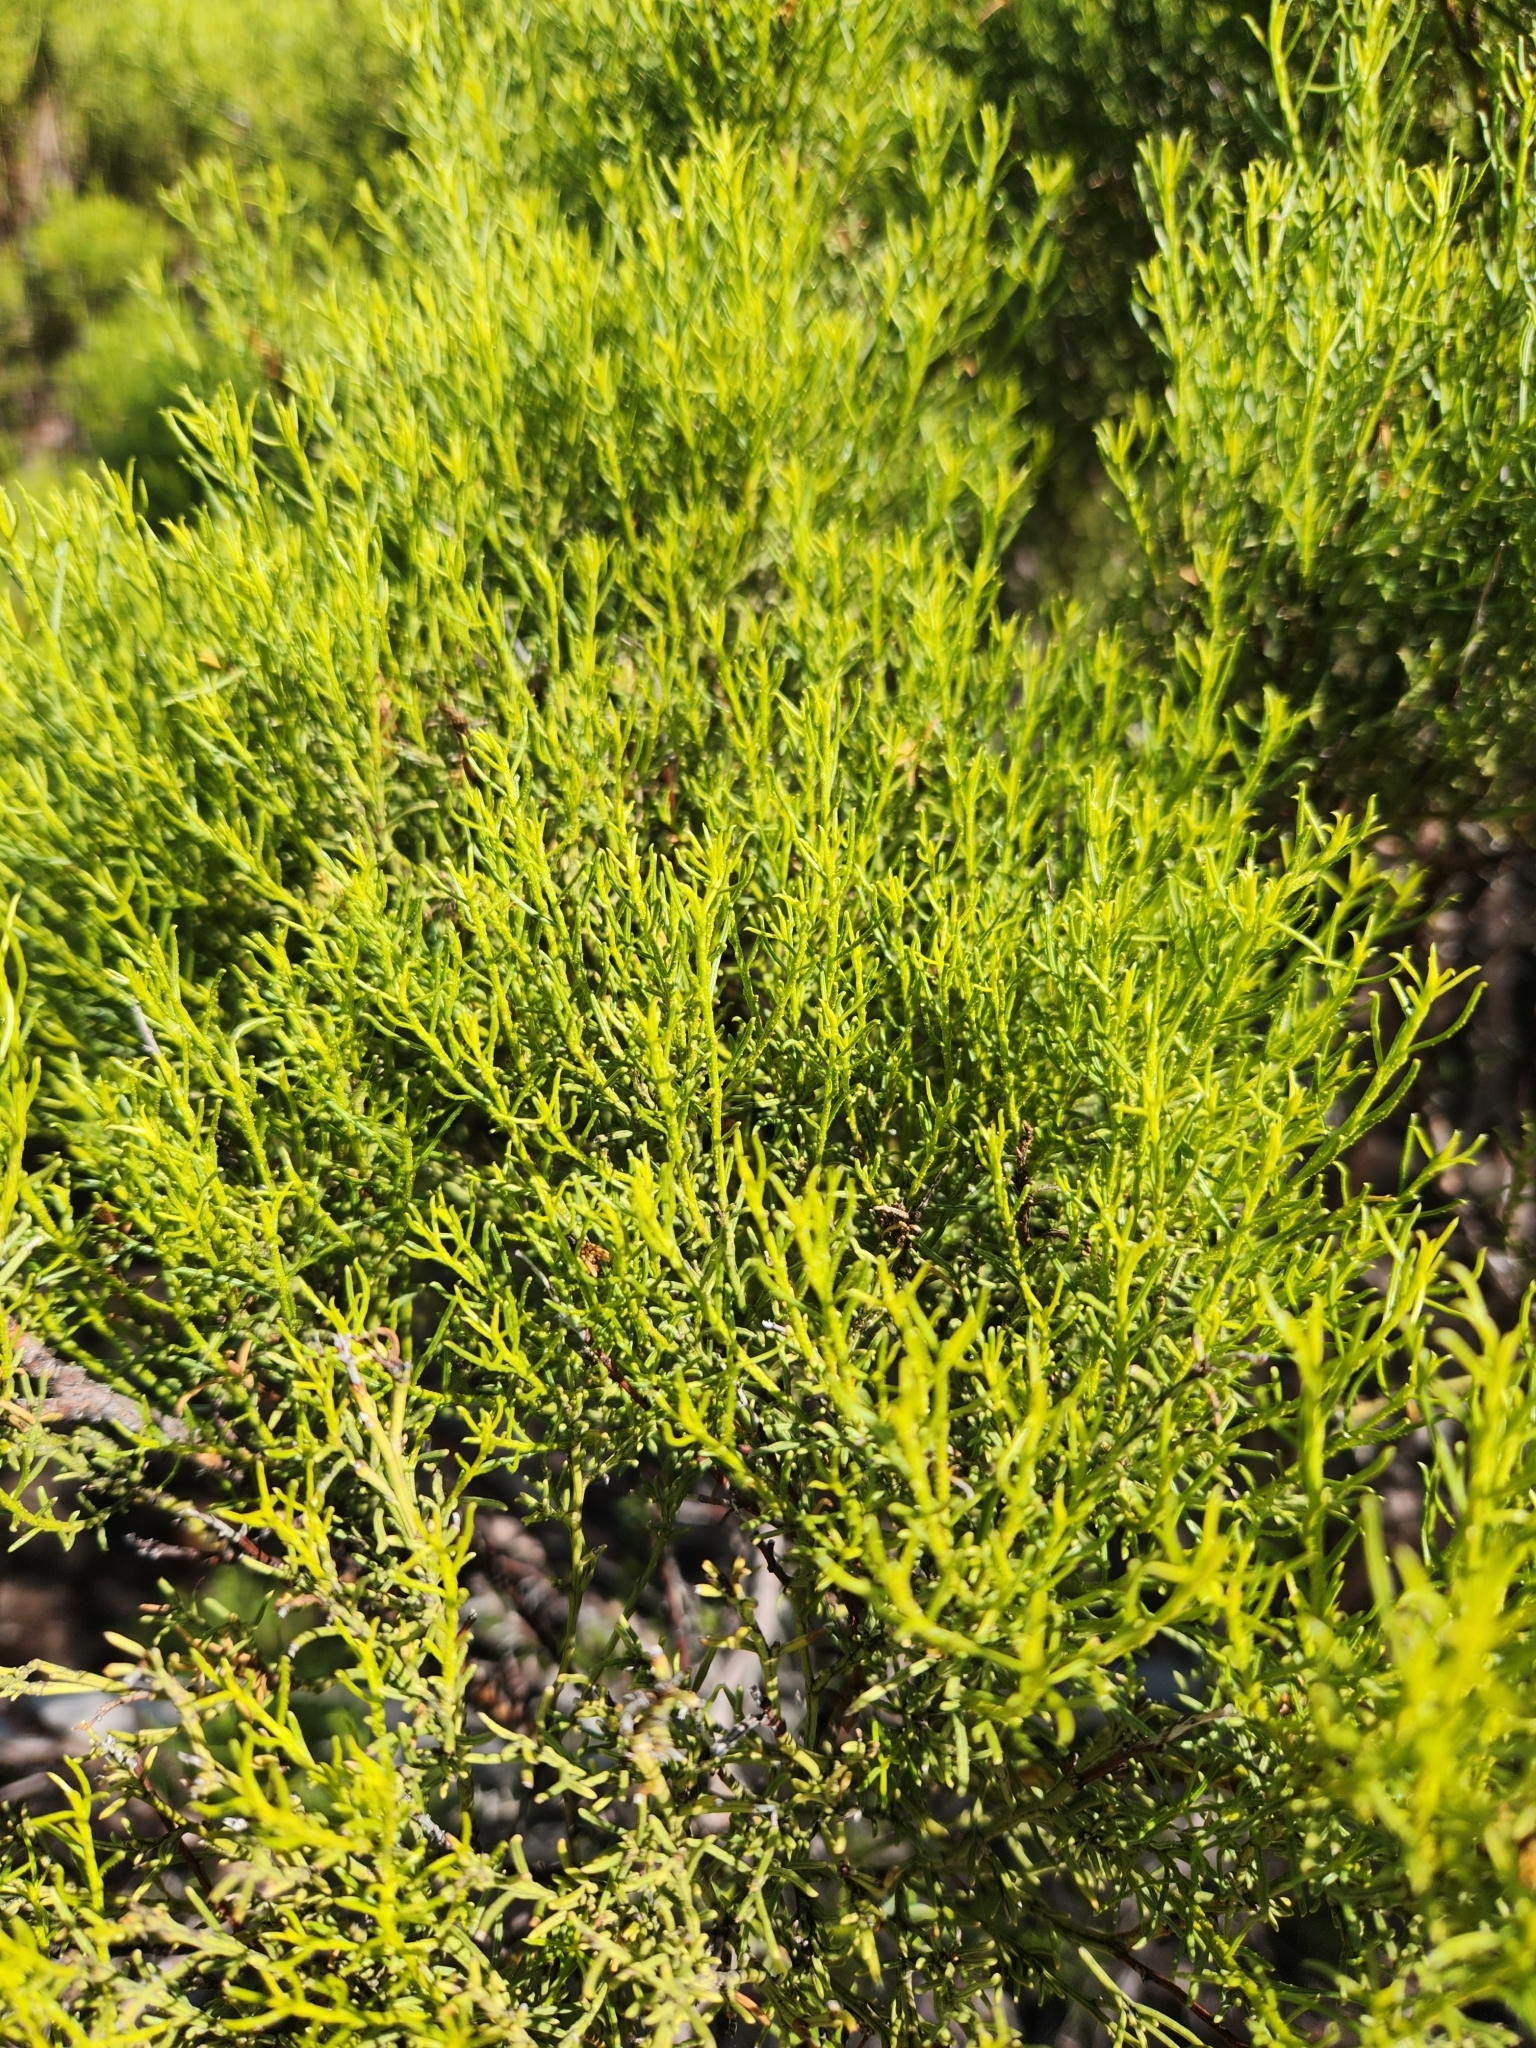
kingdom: Plantae
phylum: Tracheophyta
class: Magnoliopsida
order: Rosales
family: Rosaceae
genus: Adenostoma
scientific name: Adenostoma sparsifolium
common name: Red shank
